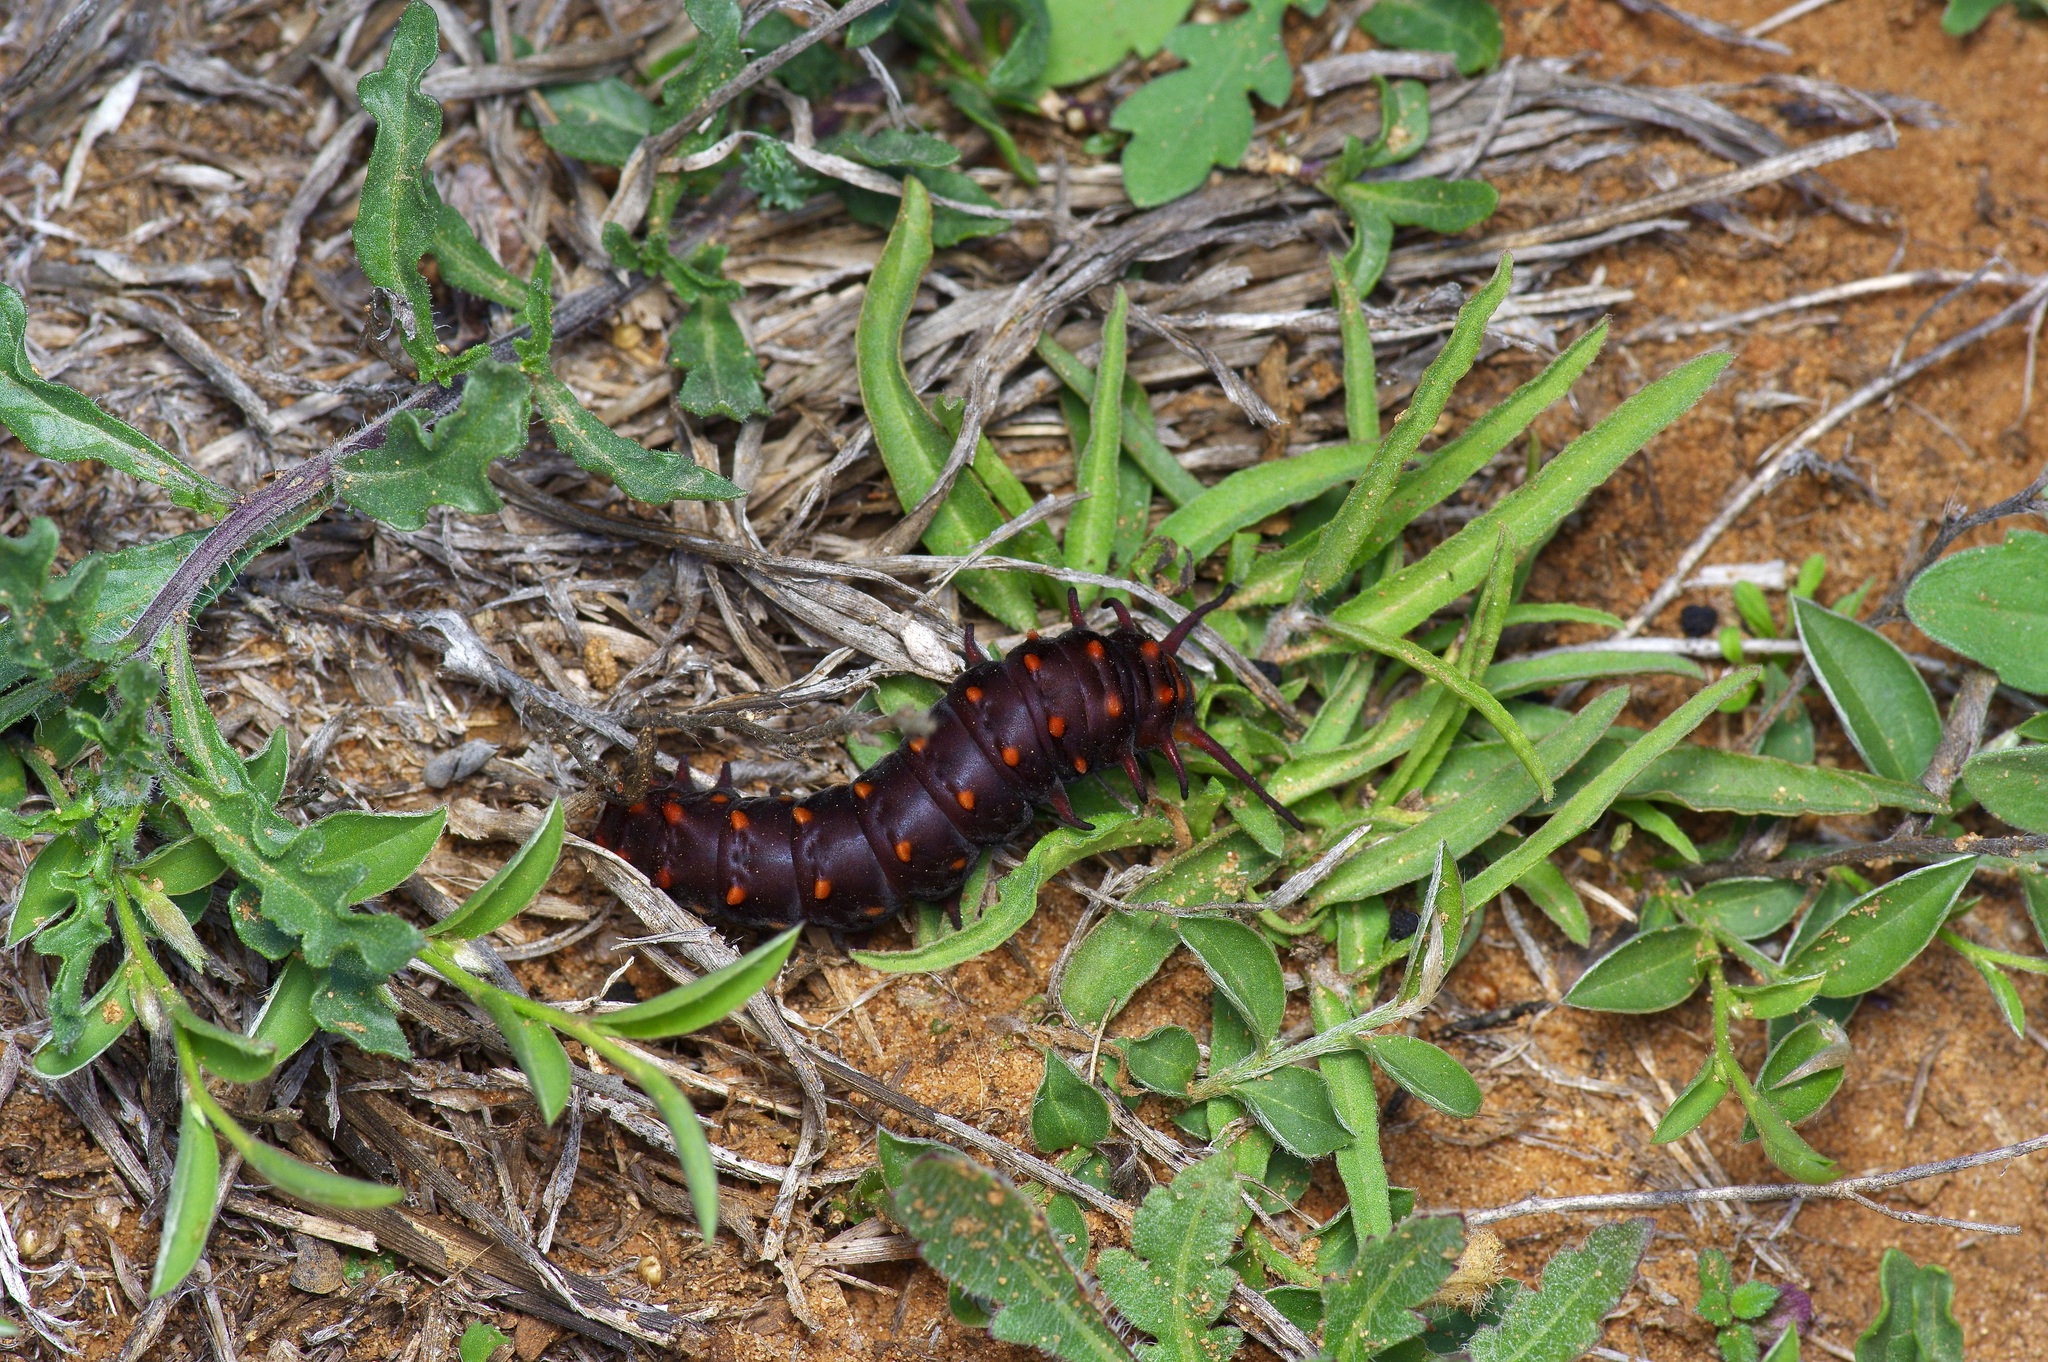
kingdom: Animalia
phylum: Arthropoda
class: Insecta
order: Lepidoptera
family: Papilionidae
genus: Battus
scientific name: Battus philenor
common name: Pipevine swallowtail
